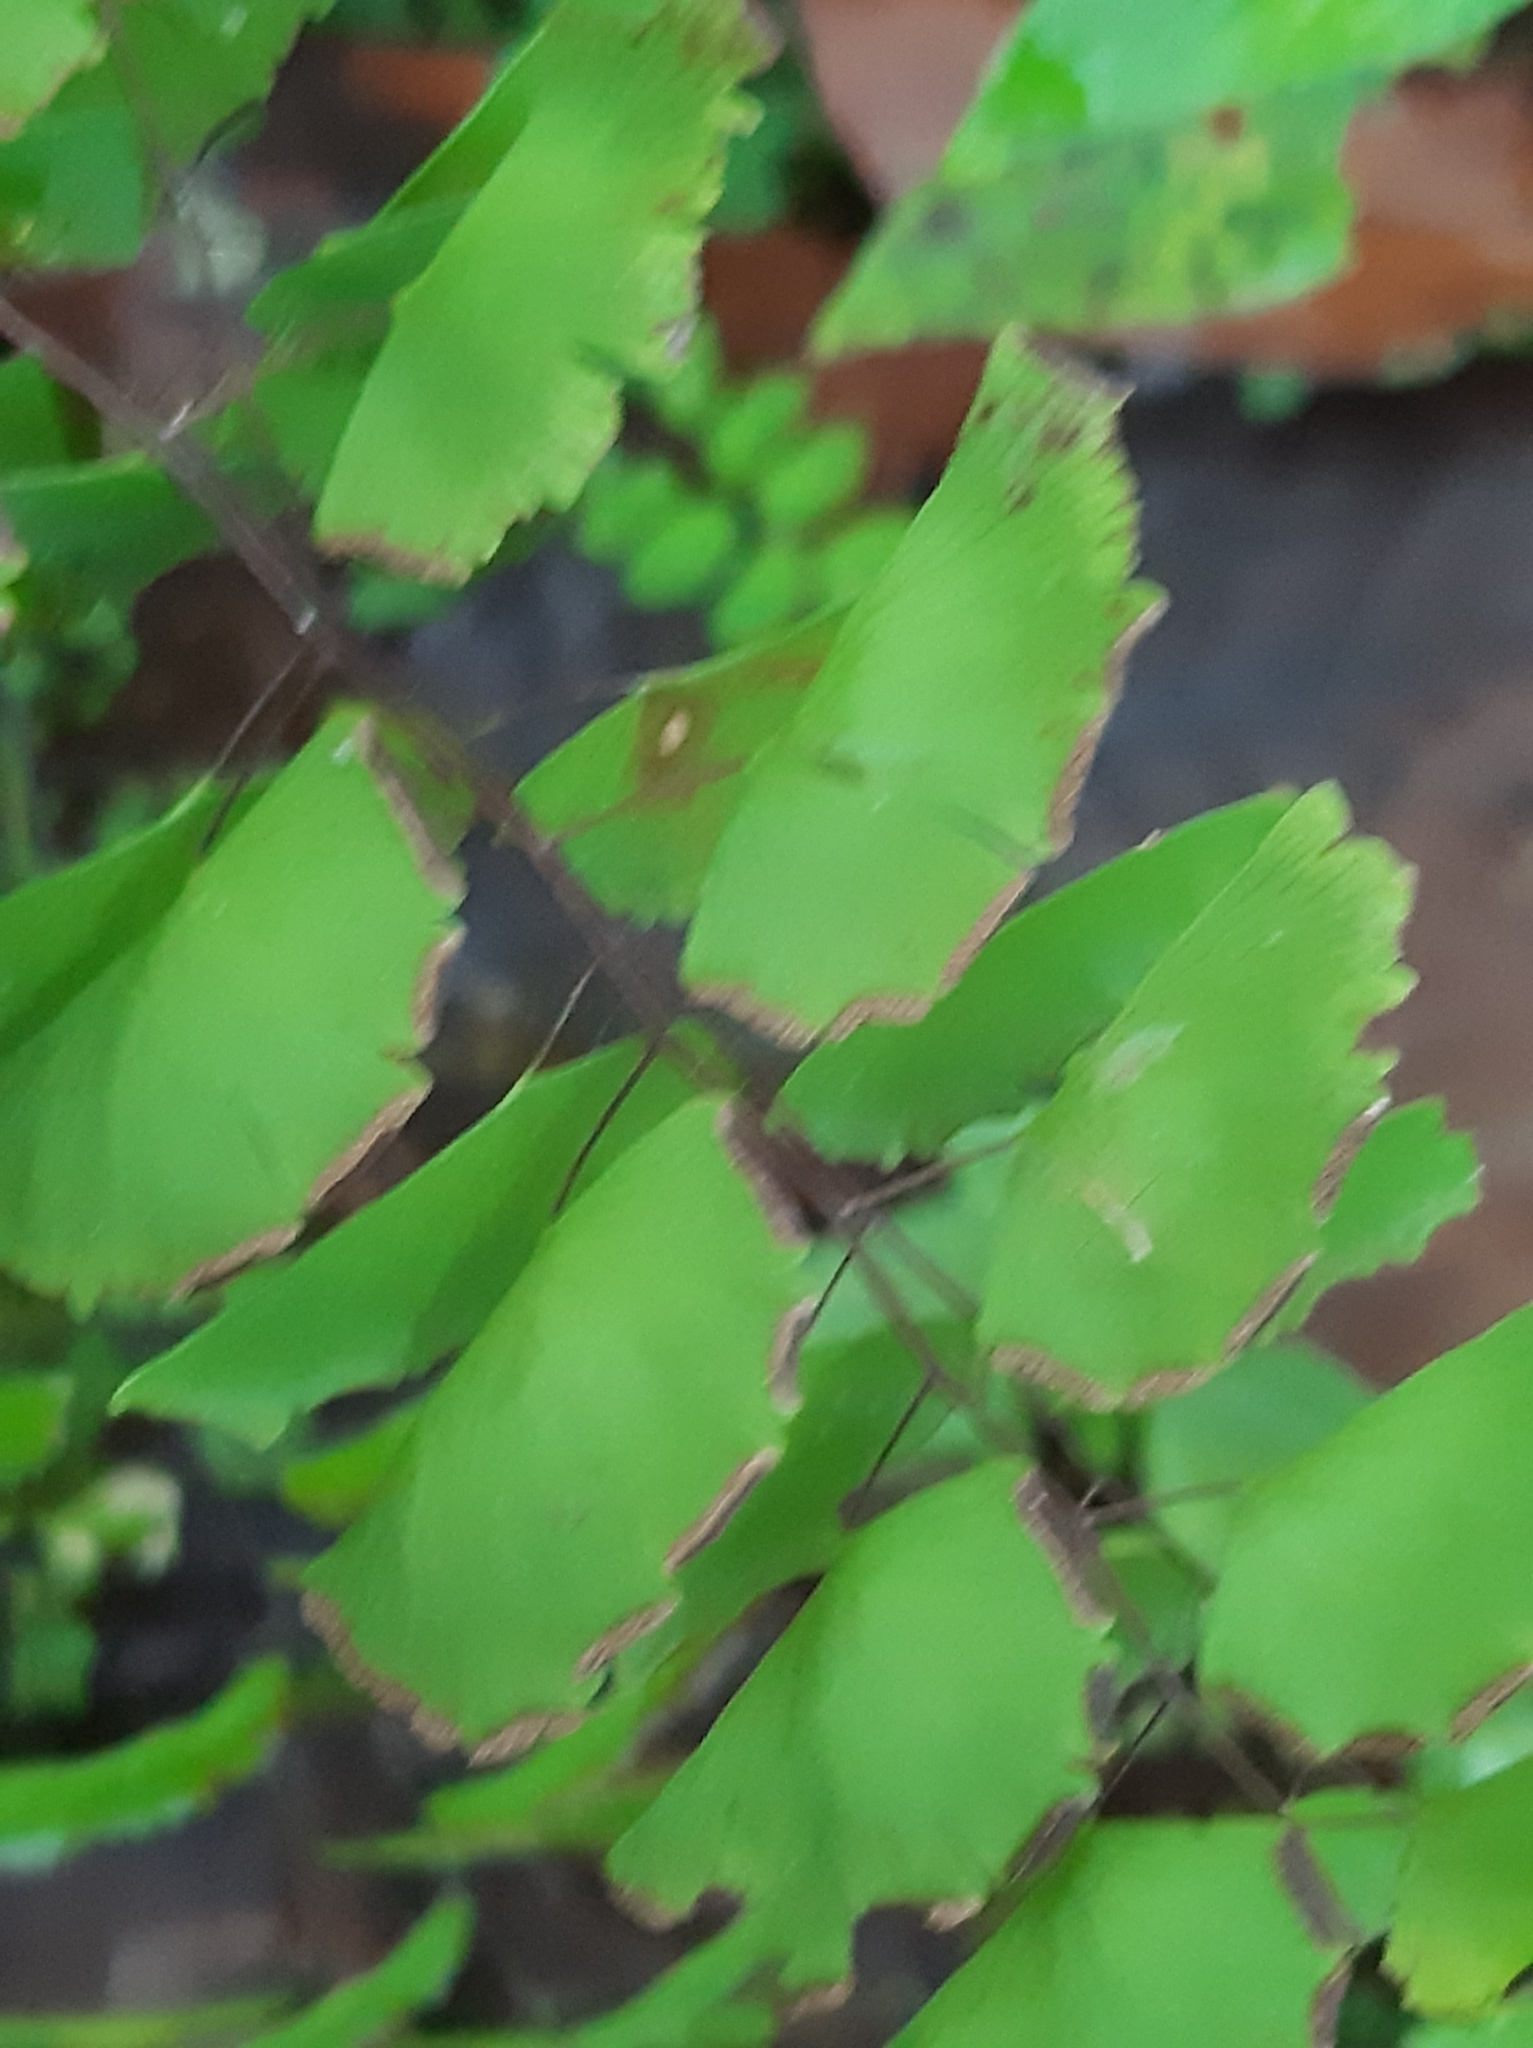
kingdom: Plantae
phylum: Tracheophyta
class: Polypodiopsida
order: Polypodiales
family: Pteridaceae
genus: Adiantum
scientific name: Adiantum philippense
